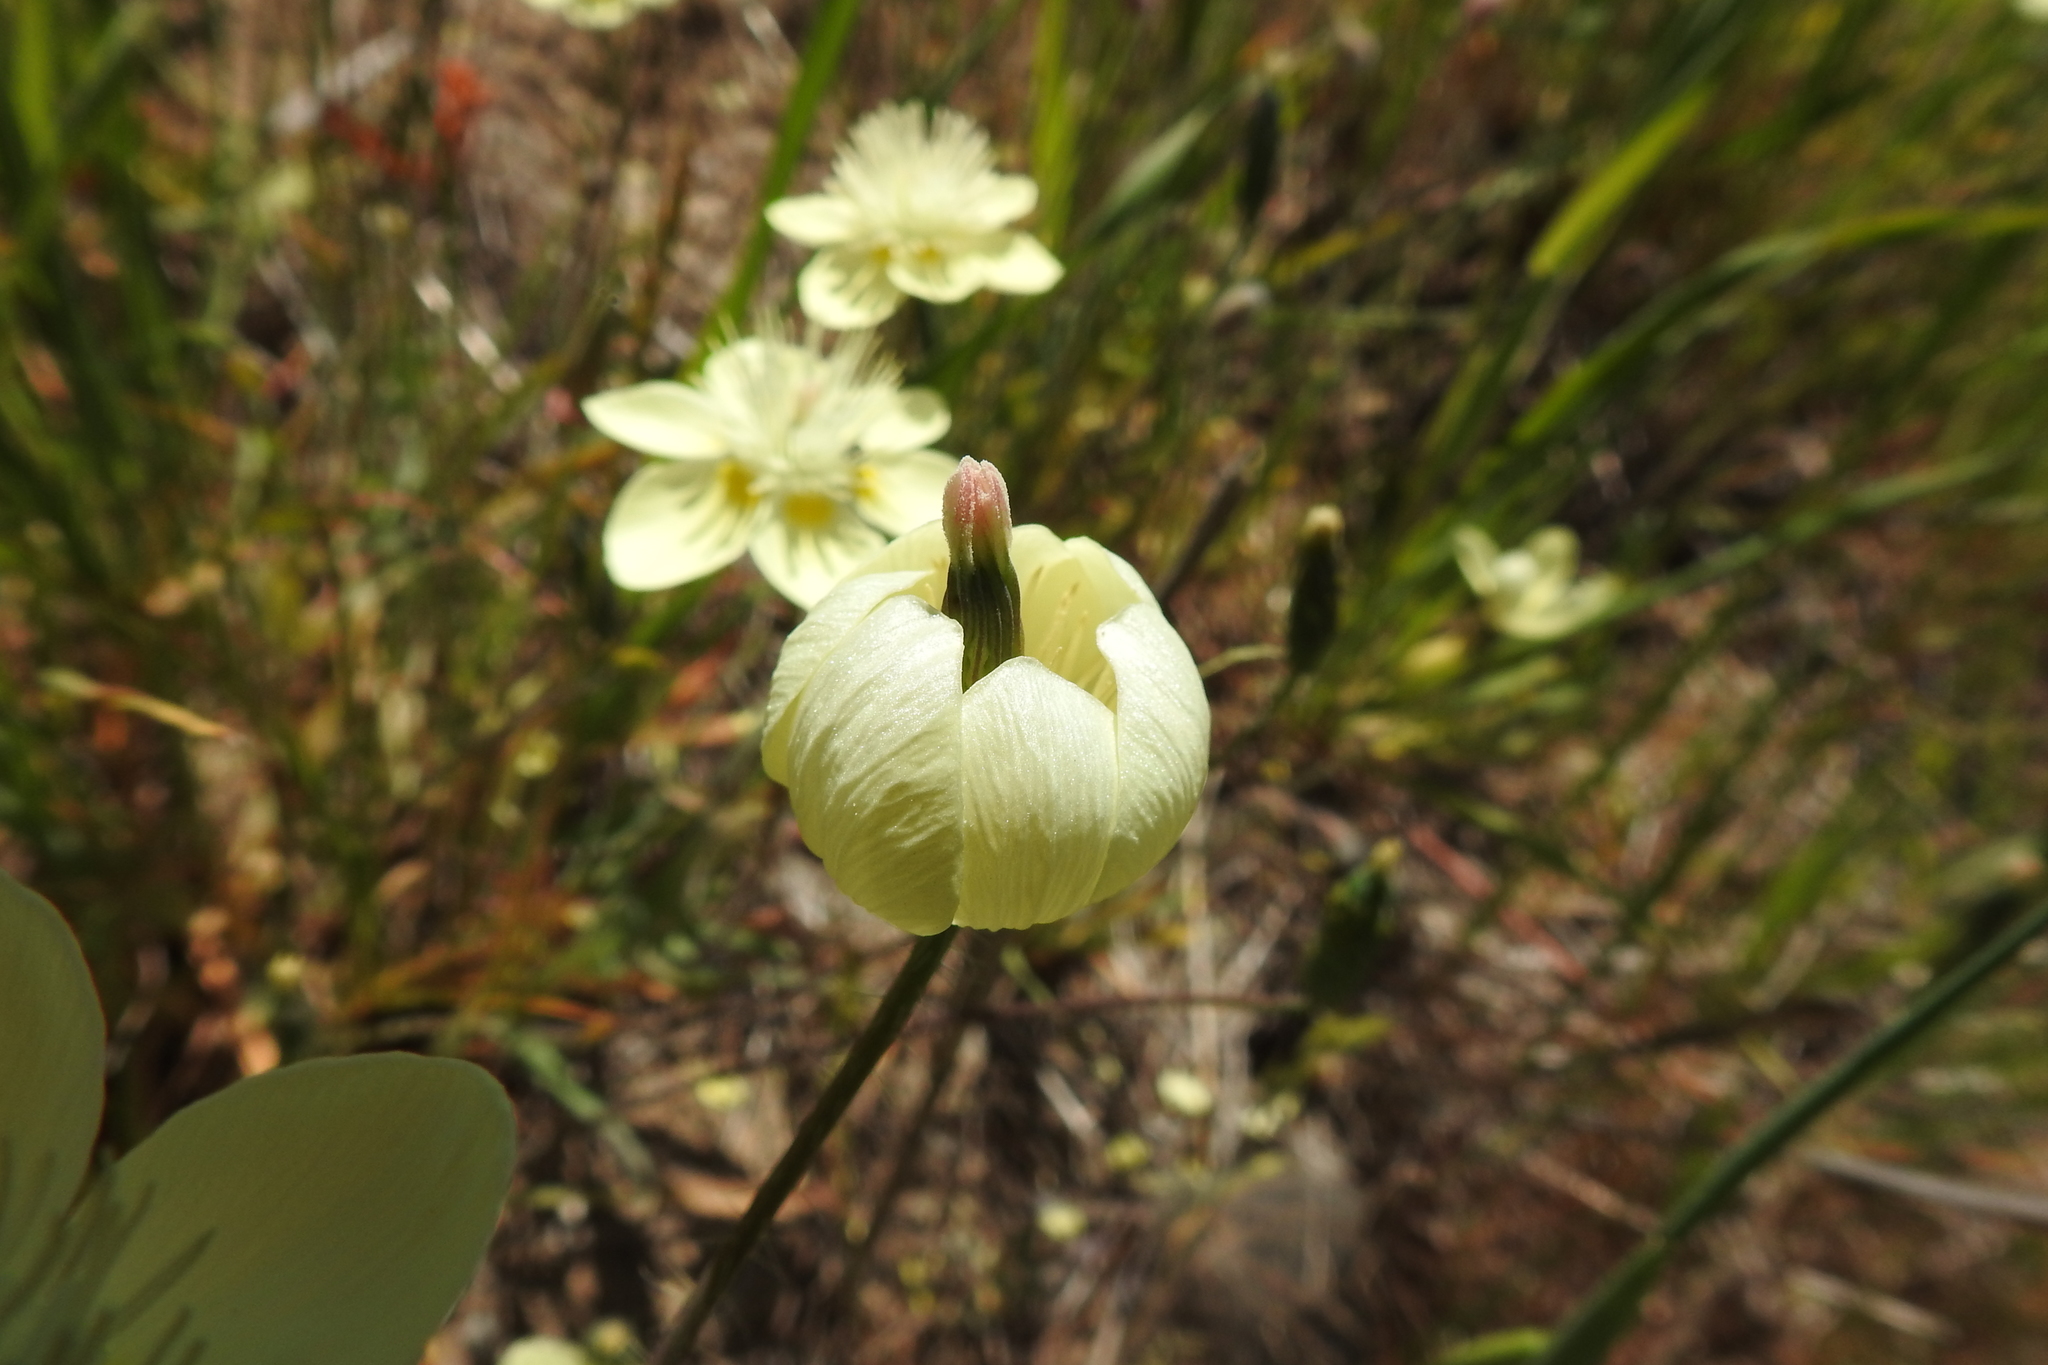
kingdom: Plantae
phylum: Tracheophyta
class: Magnoliopsida
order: Ranunculales
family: Papaveraceae
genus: Platystemon
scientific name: Platystemon californicus
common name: Cream-cups
